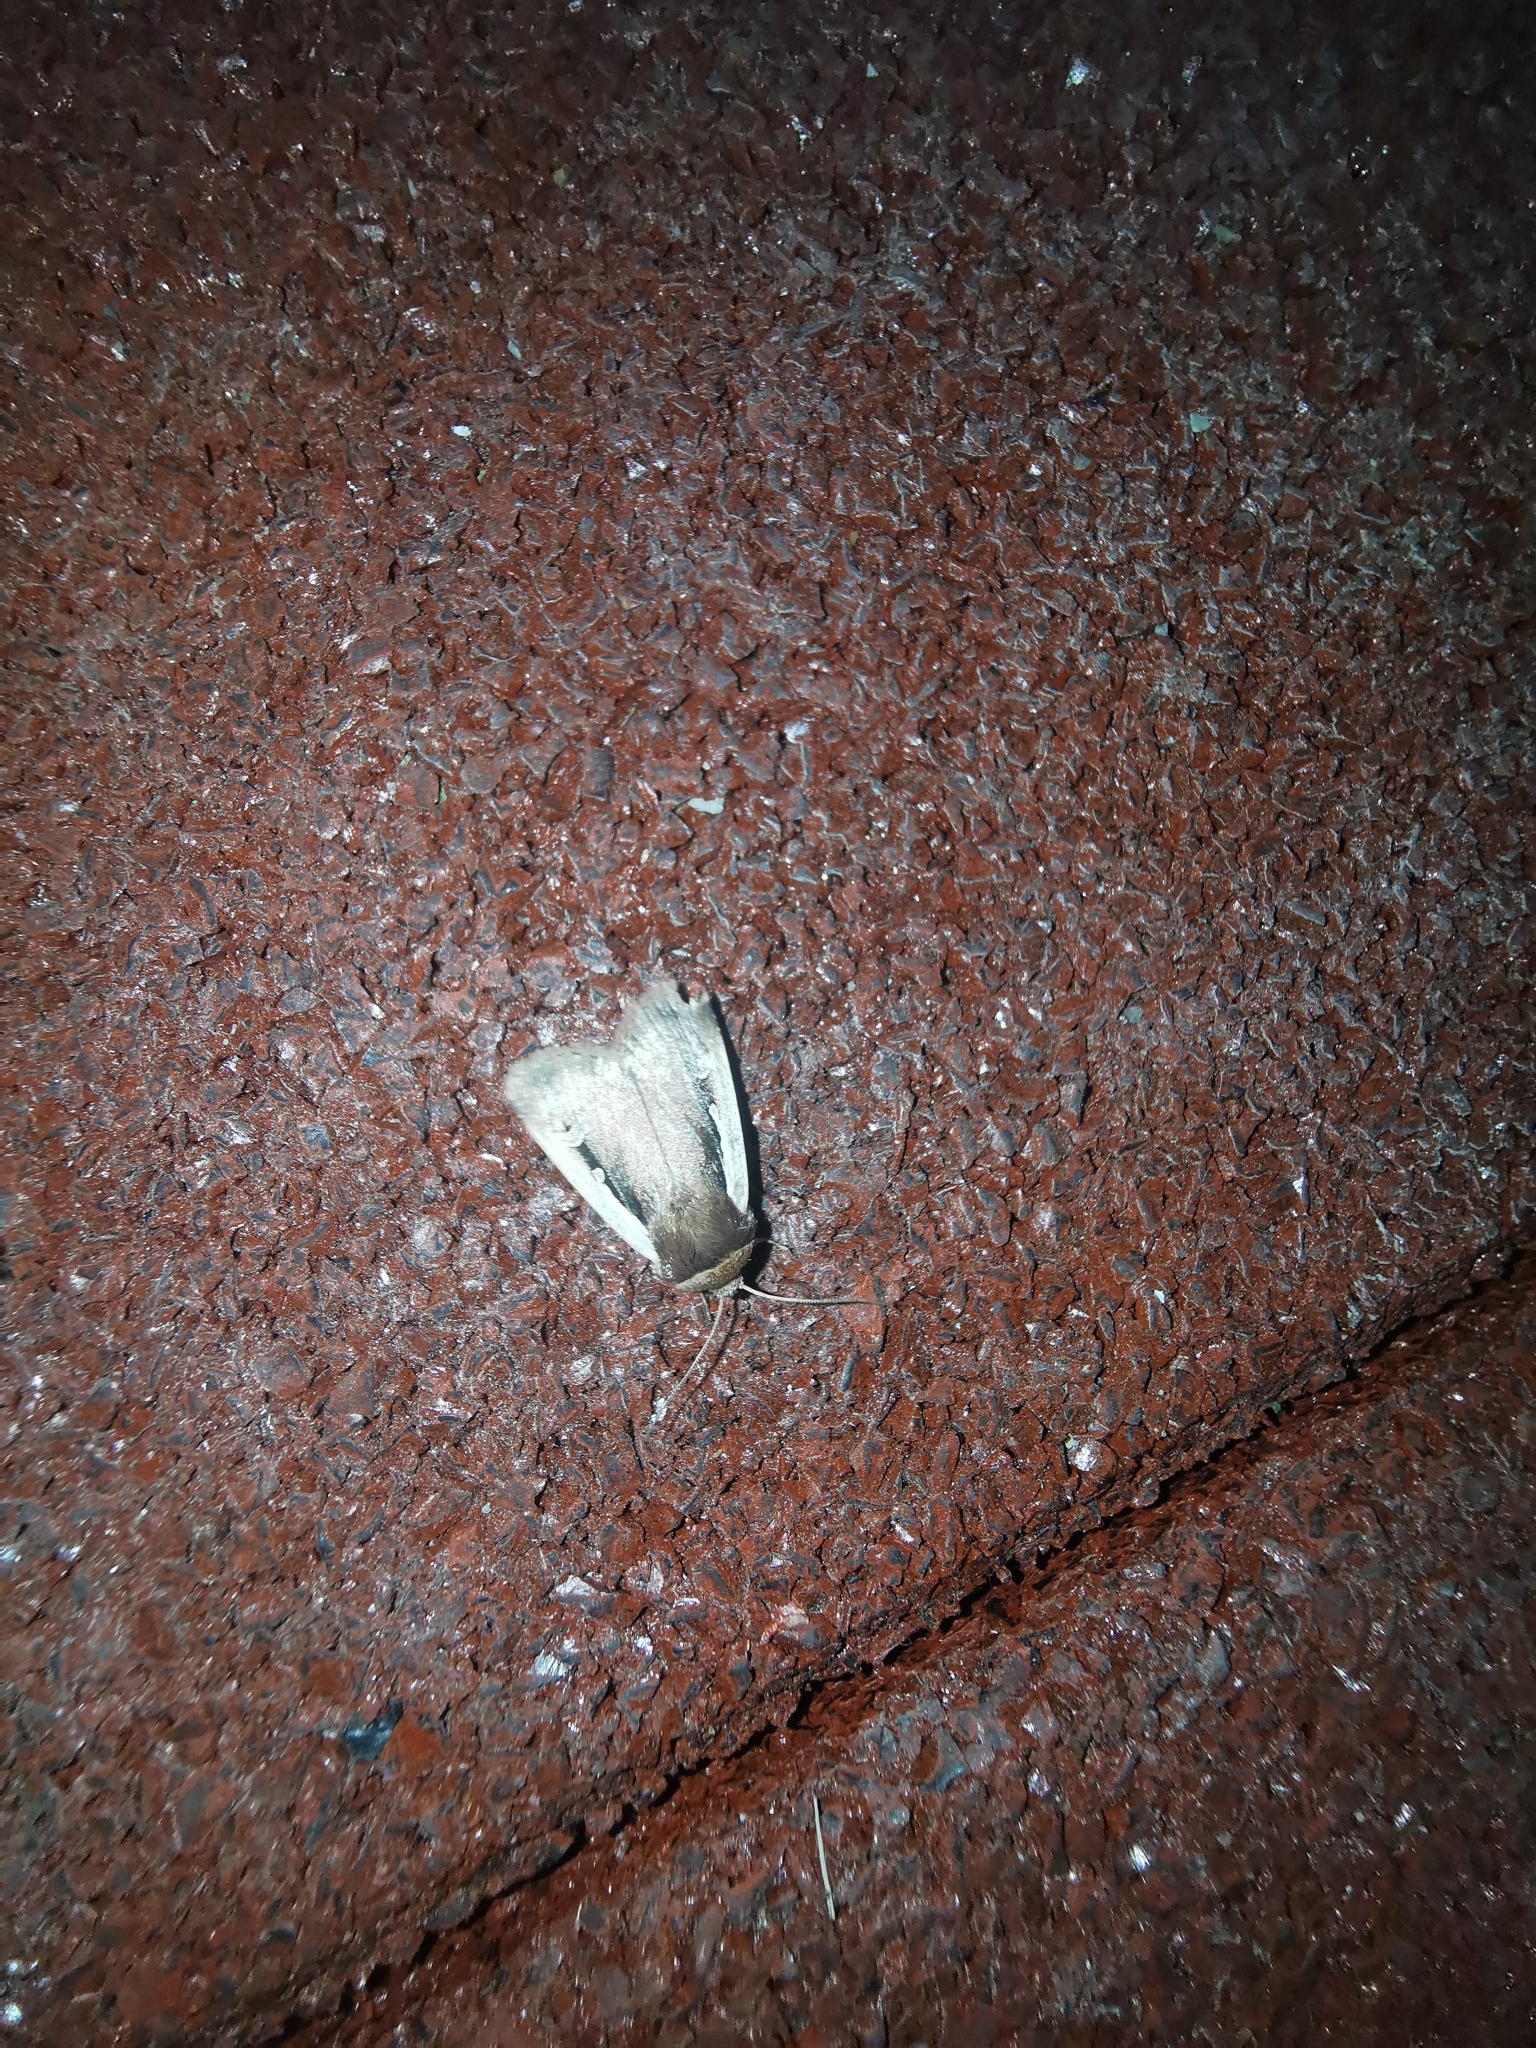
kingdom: Animalia
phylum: Arthropoda
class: Insecta
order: Lepidoptera
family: Noctuidae
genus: Ochropleura
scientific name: Ochropleura plecta
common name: Flame shoulder
